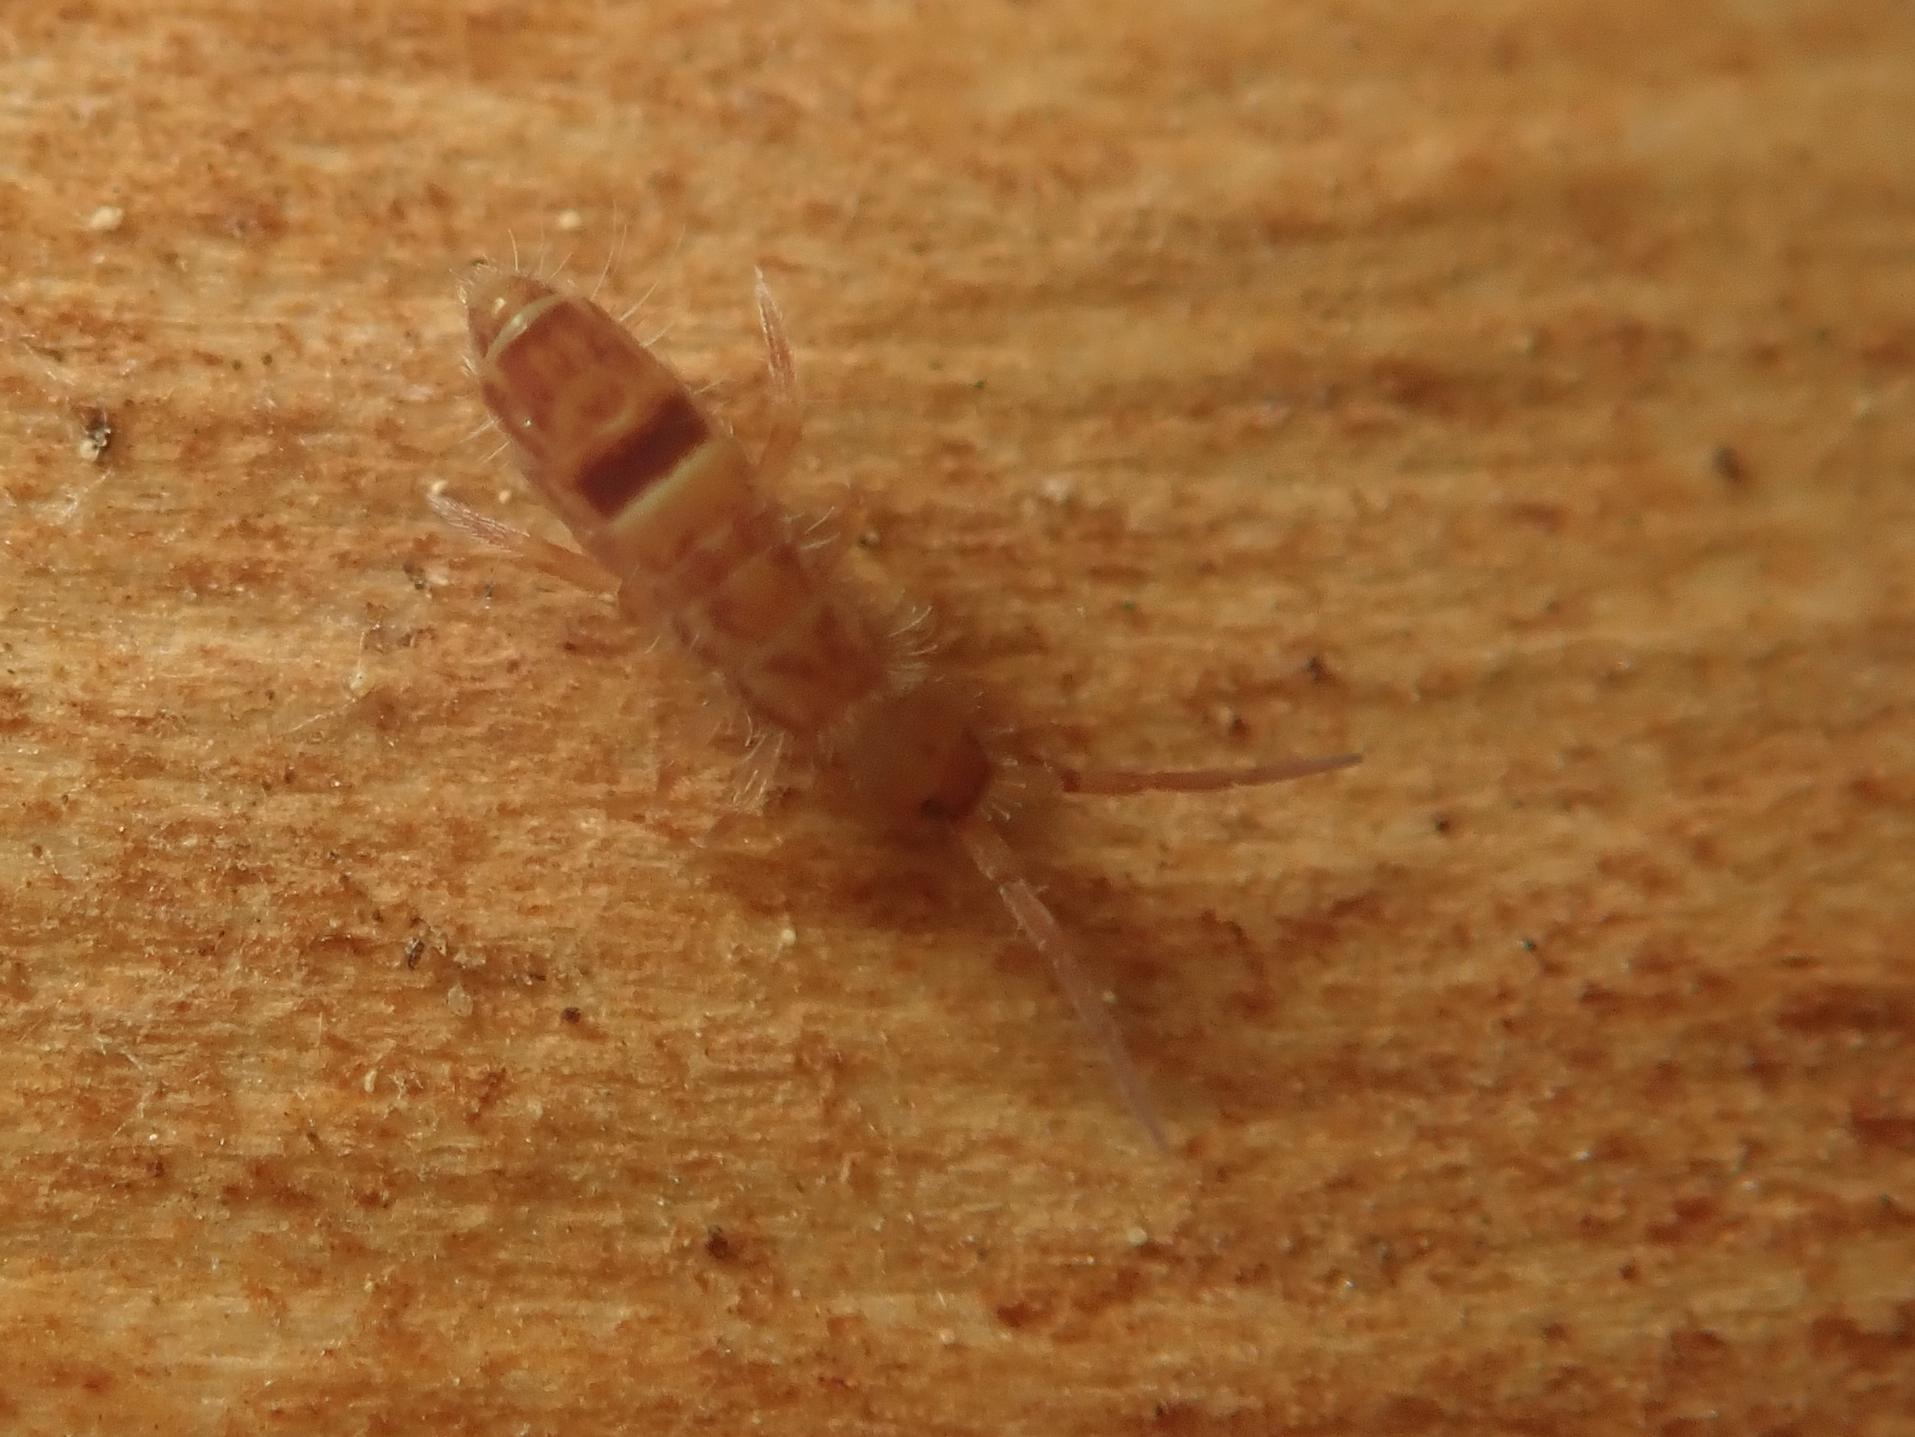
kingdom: Animalia
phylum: Arthropoda
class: Collembola
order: Entomobryomorpha
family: Orchesellidae
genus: Orchesella
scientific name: Orchesella cincta
